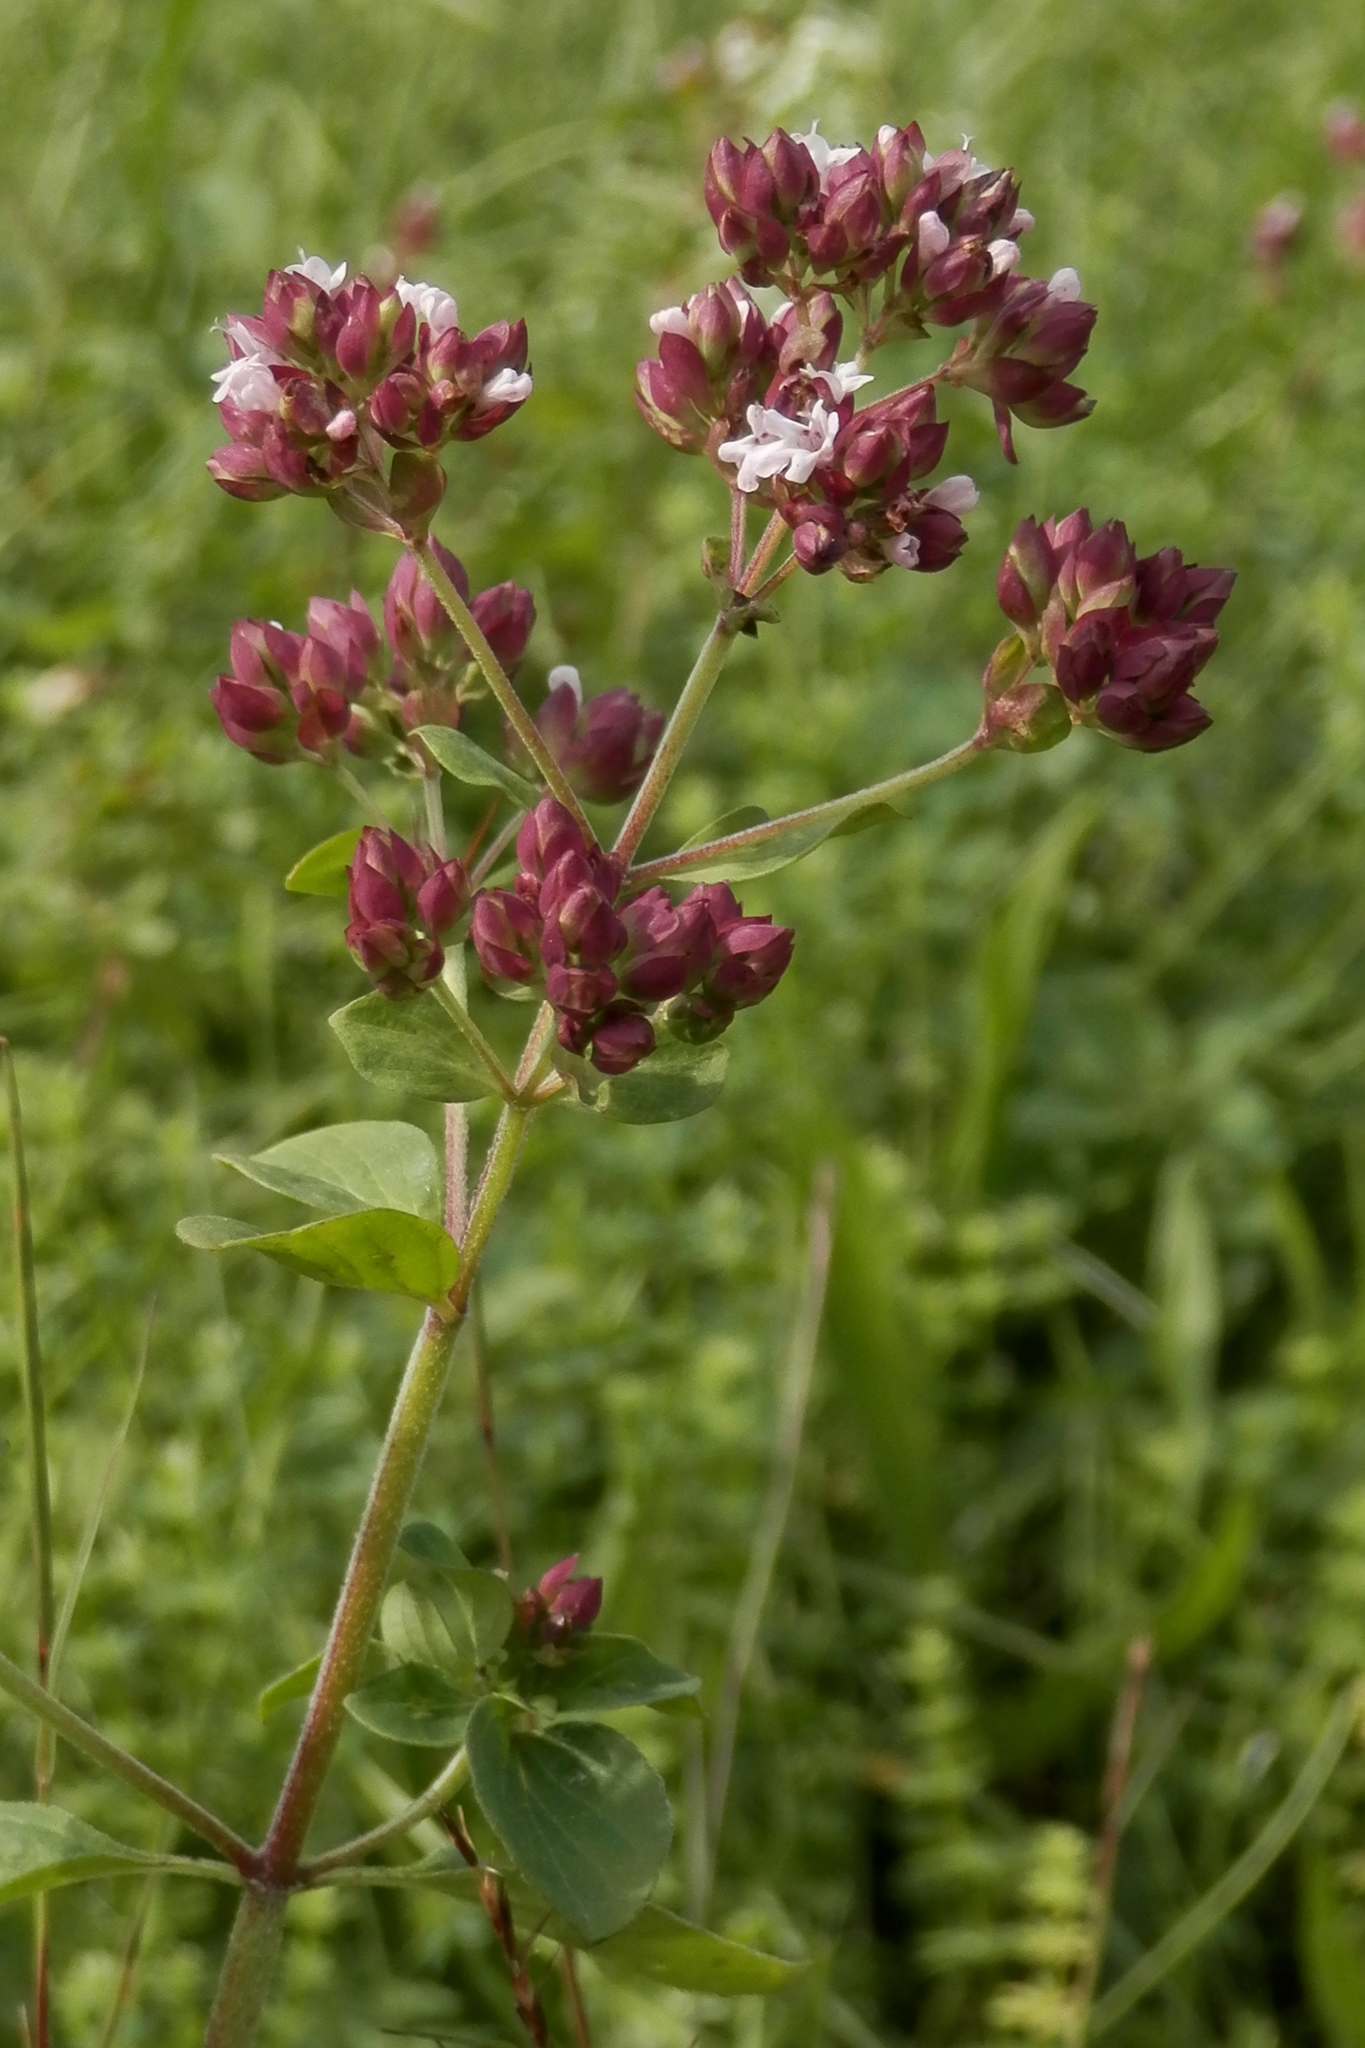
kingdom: Plantae
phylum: Tracheophyta
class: Magnoliopsida
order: Lamiales
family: Lamiaceae
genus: Origanum
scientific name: Origanum vulgare
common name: Wild marjoram
